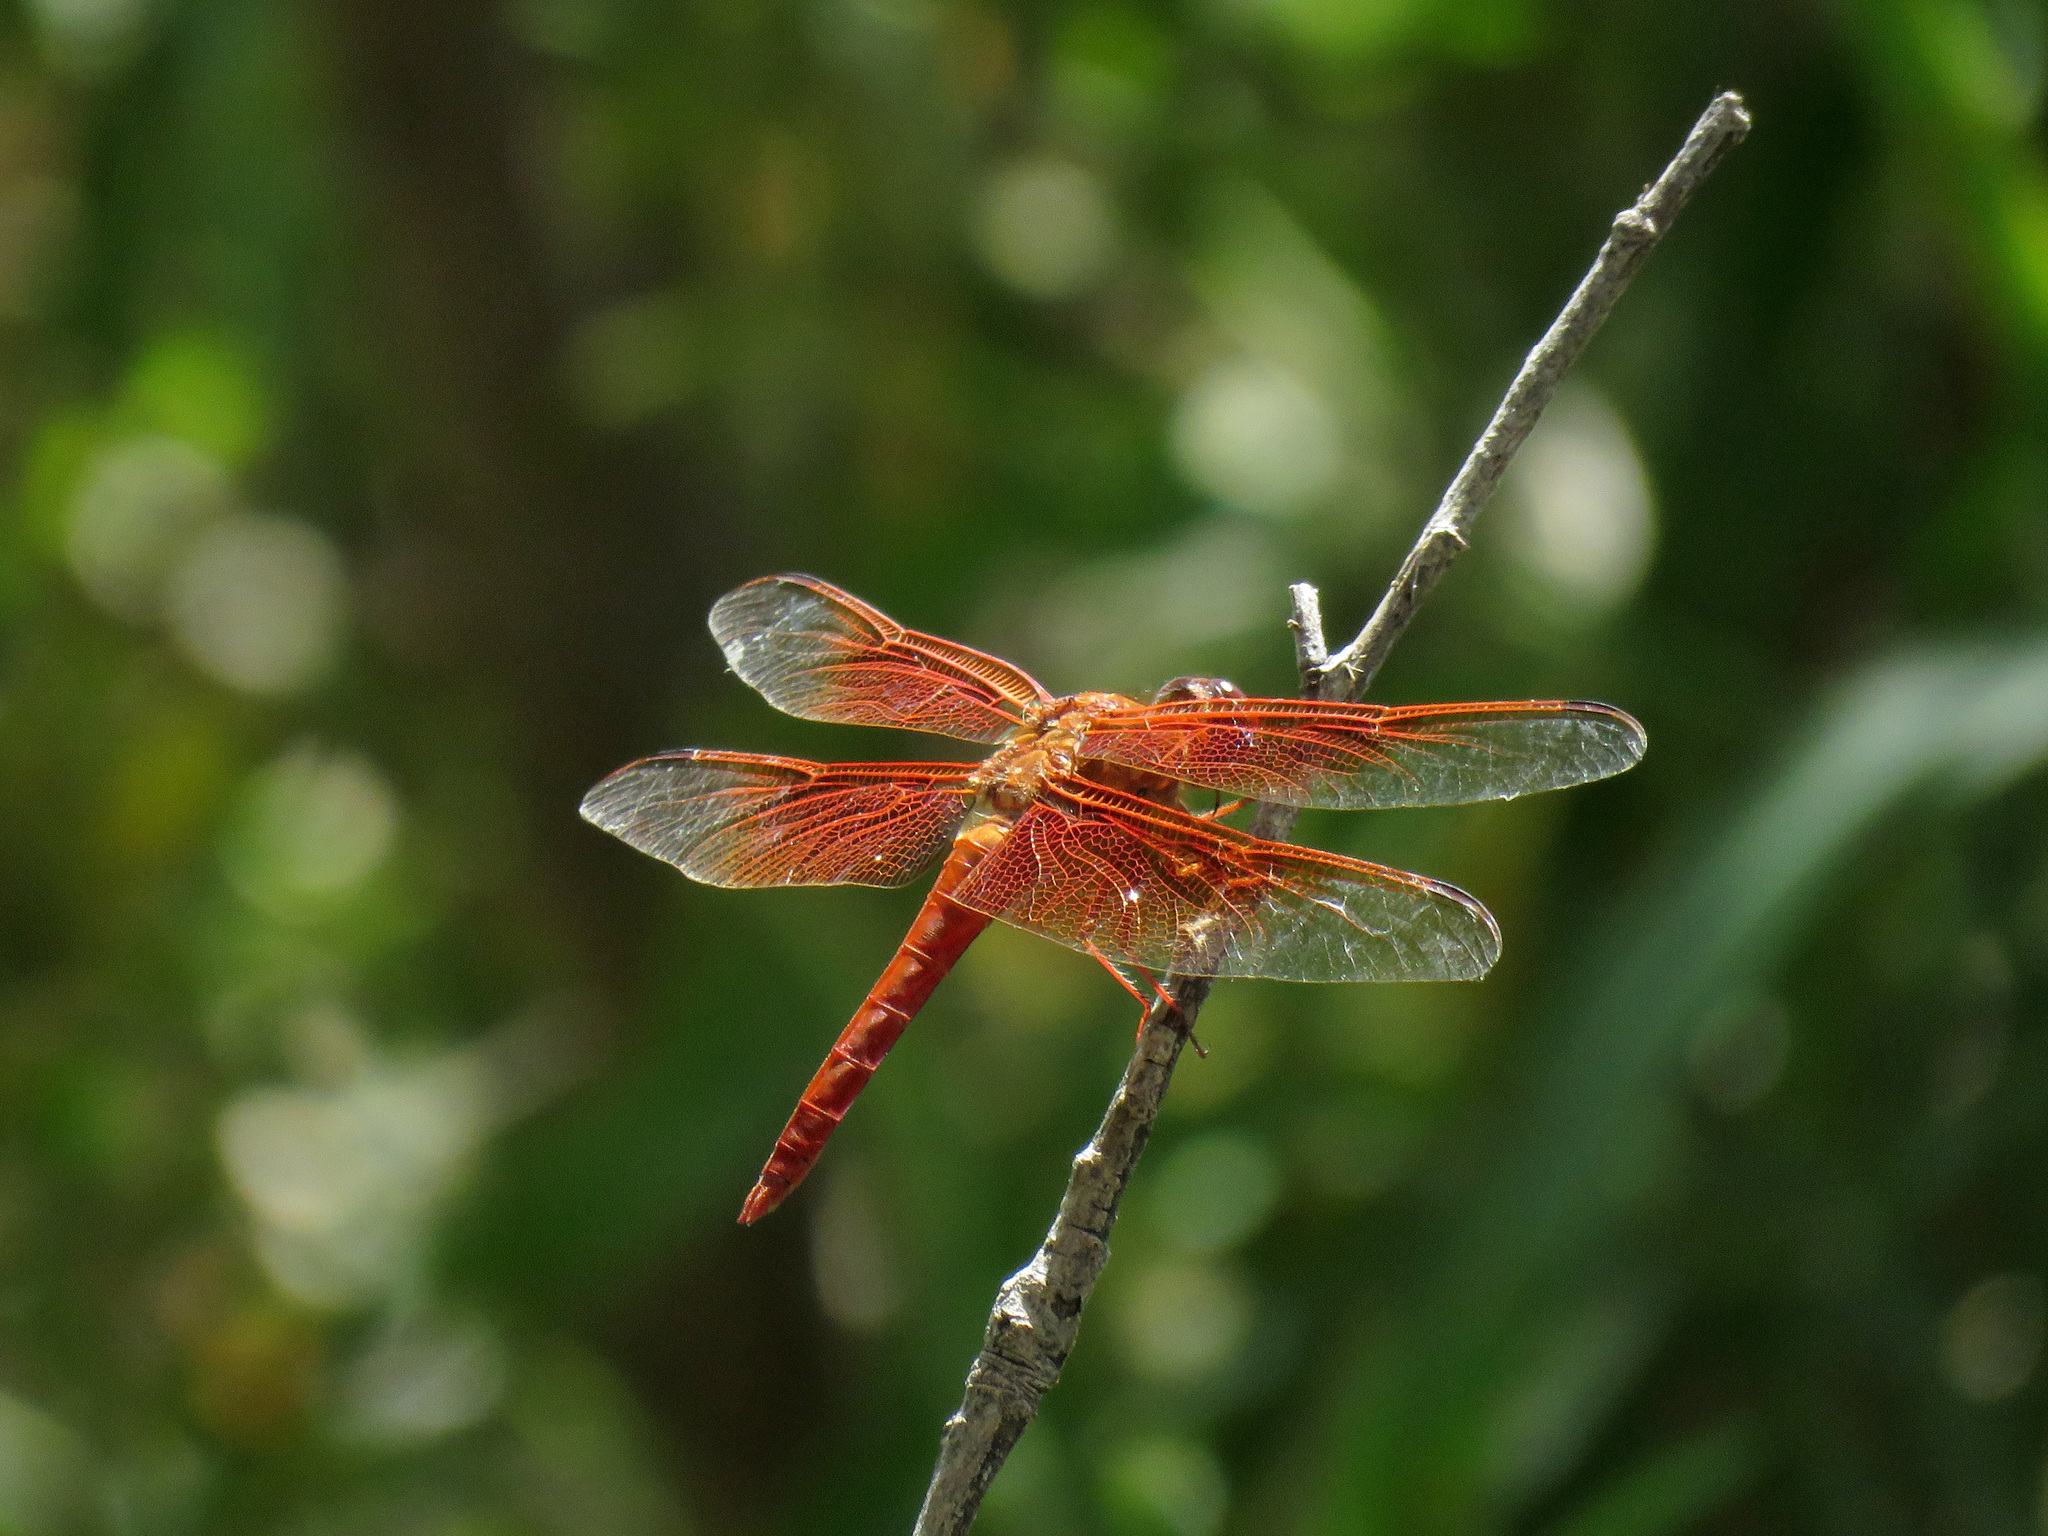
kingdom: Animalia
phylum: Arthropoda
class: Insecta
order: Odonata
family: Libellulidae
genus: Libellula
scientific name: Libellula saturata
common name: Flame skimmer
